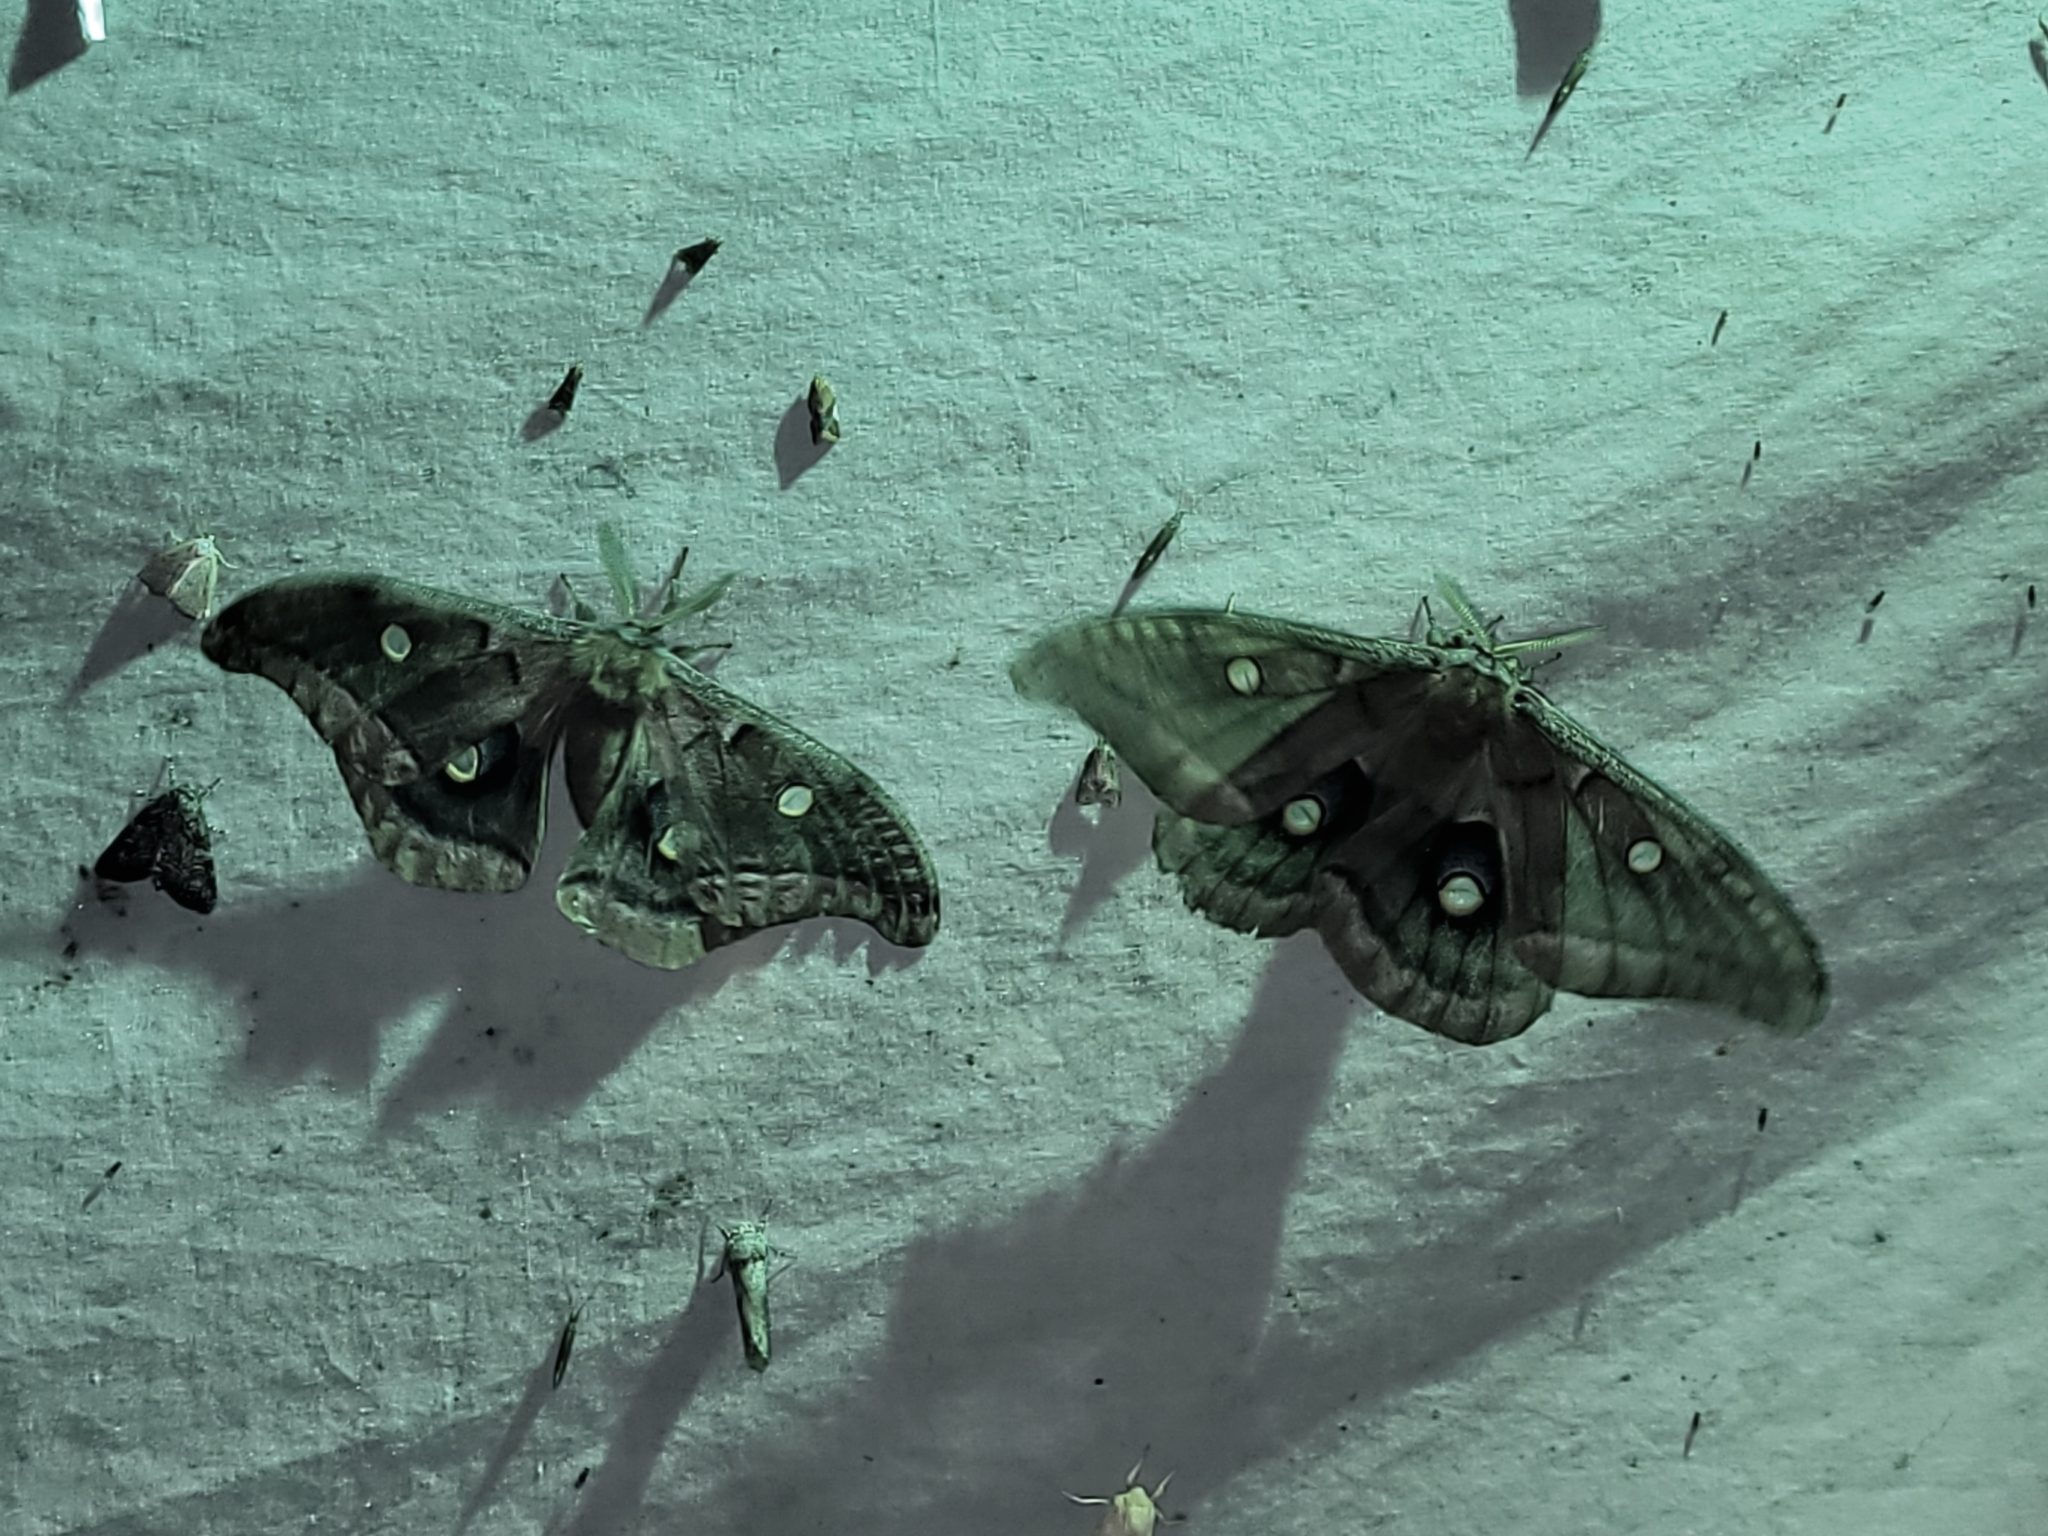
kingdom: Animalia
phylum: Arthropoda
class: Insecta
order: Lepidoptera
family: Saturniidae
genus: Antheraea
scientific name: Antheraea polyphemus
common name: Polyphemus moth
